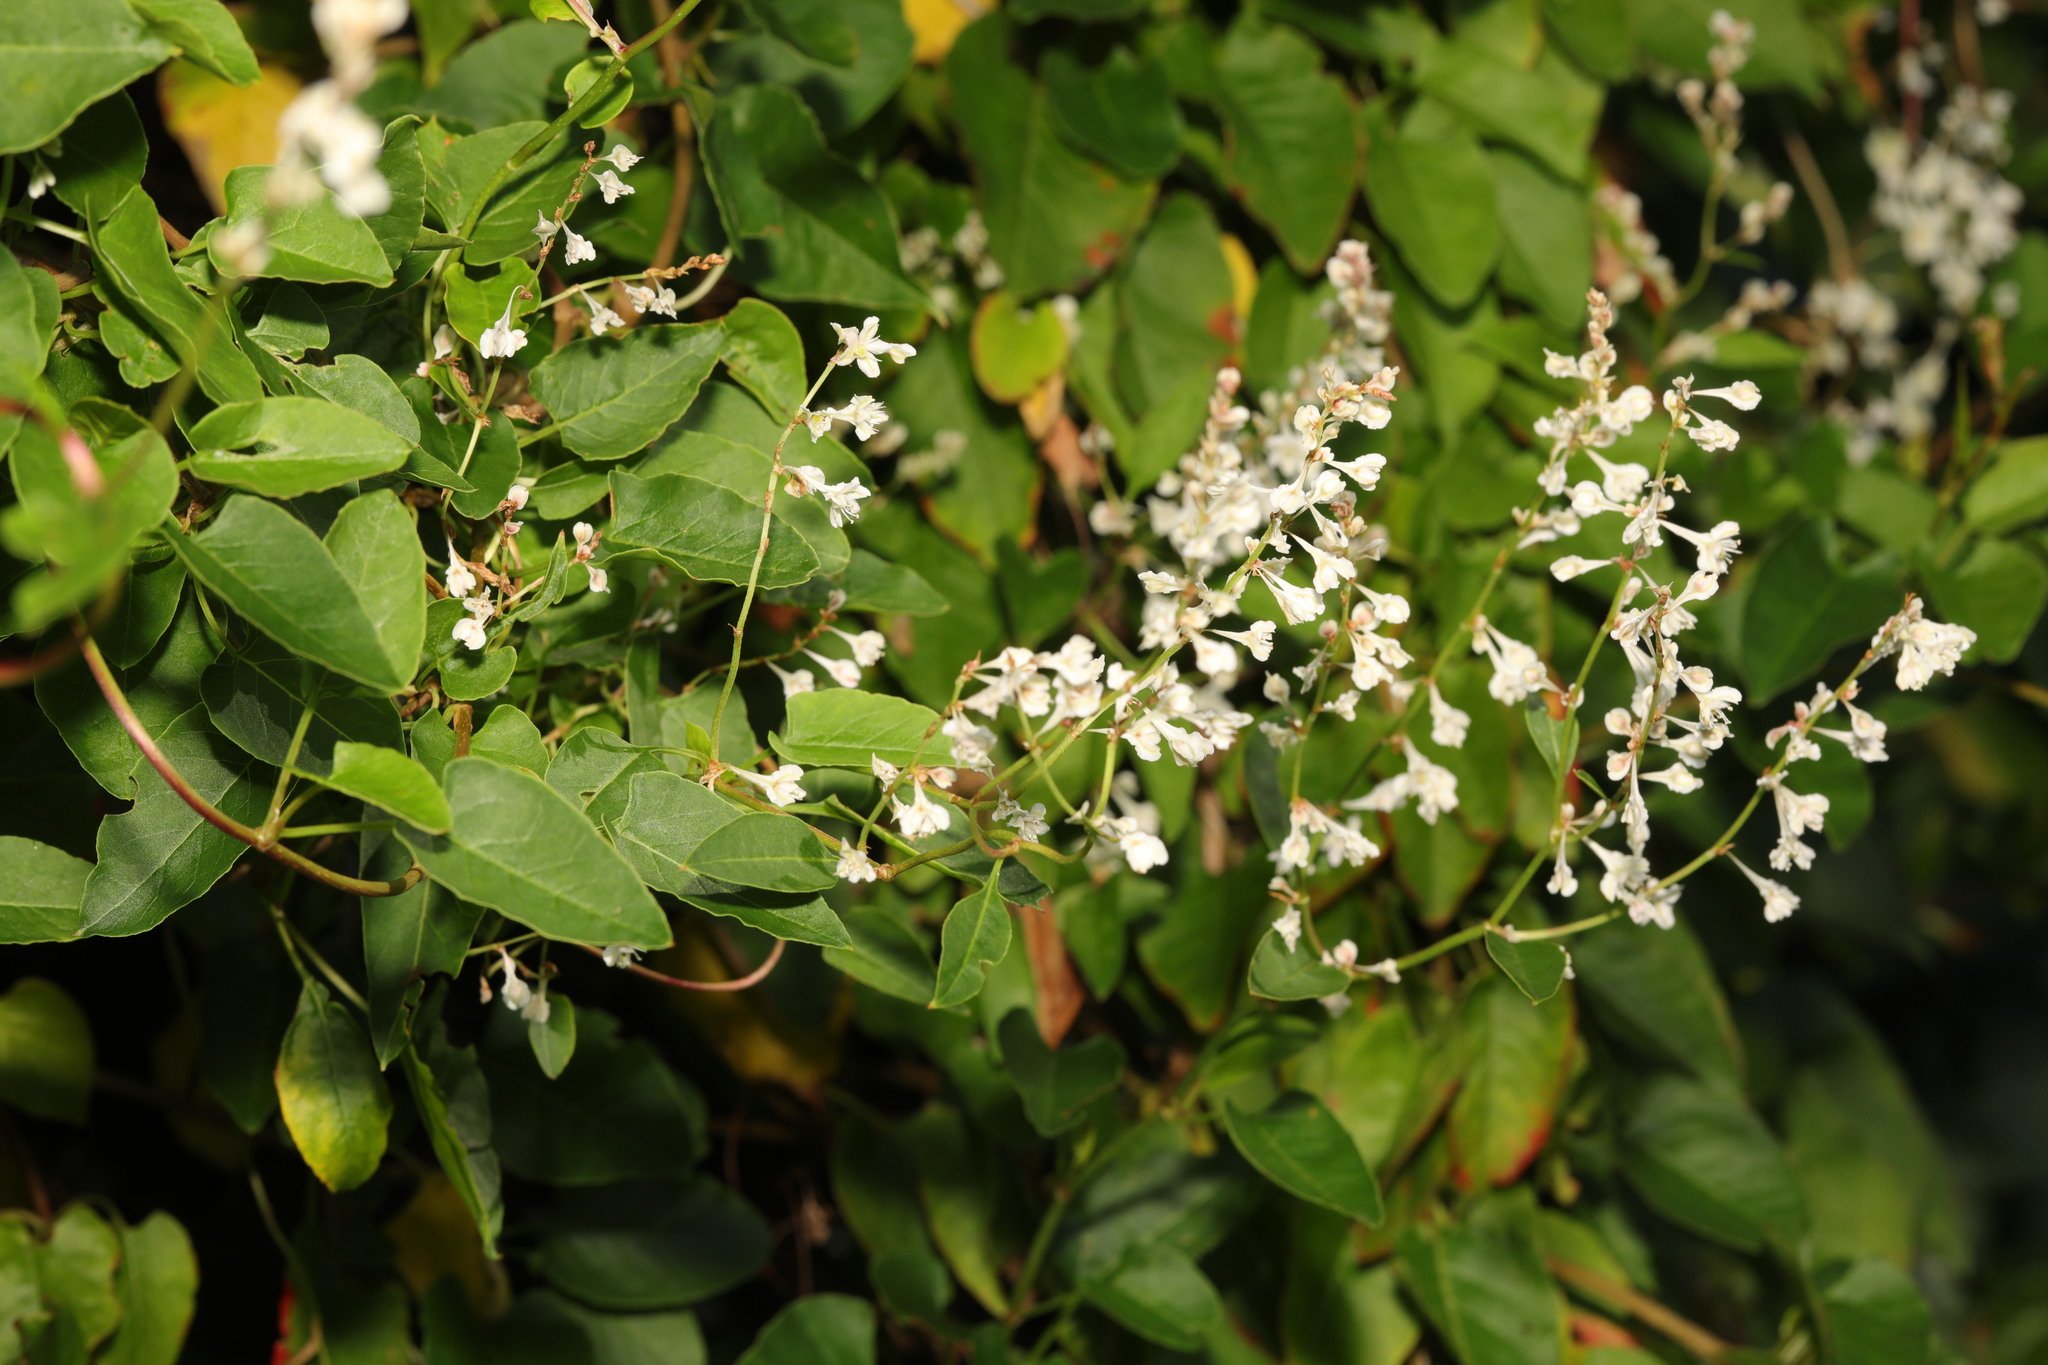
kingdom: Plantae
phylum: Tracheophyta
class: Magnoliopsida
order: Caryophyllales
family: Polygonaceae
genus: Fallopia
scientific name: Fallopia baldschuanica
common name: Russian-vine
